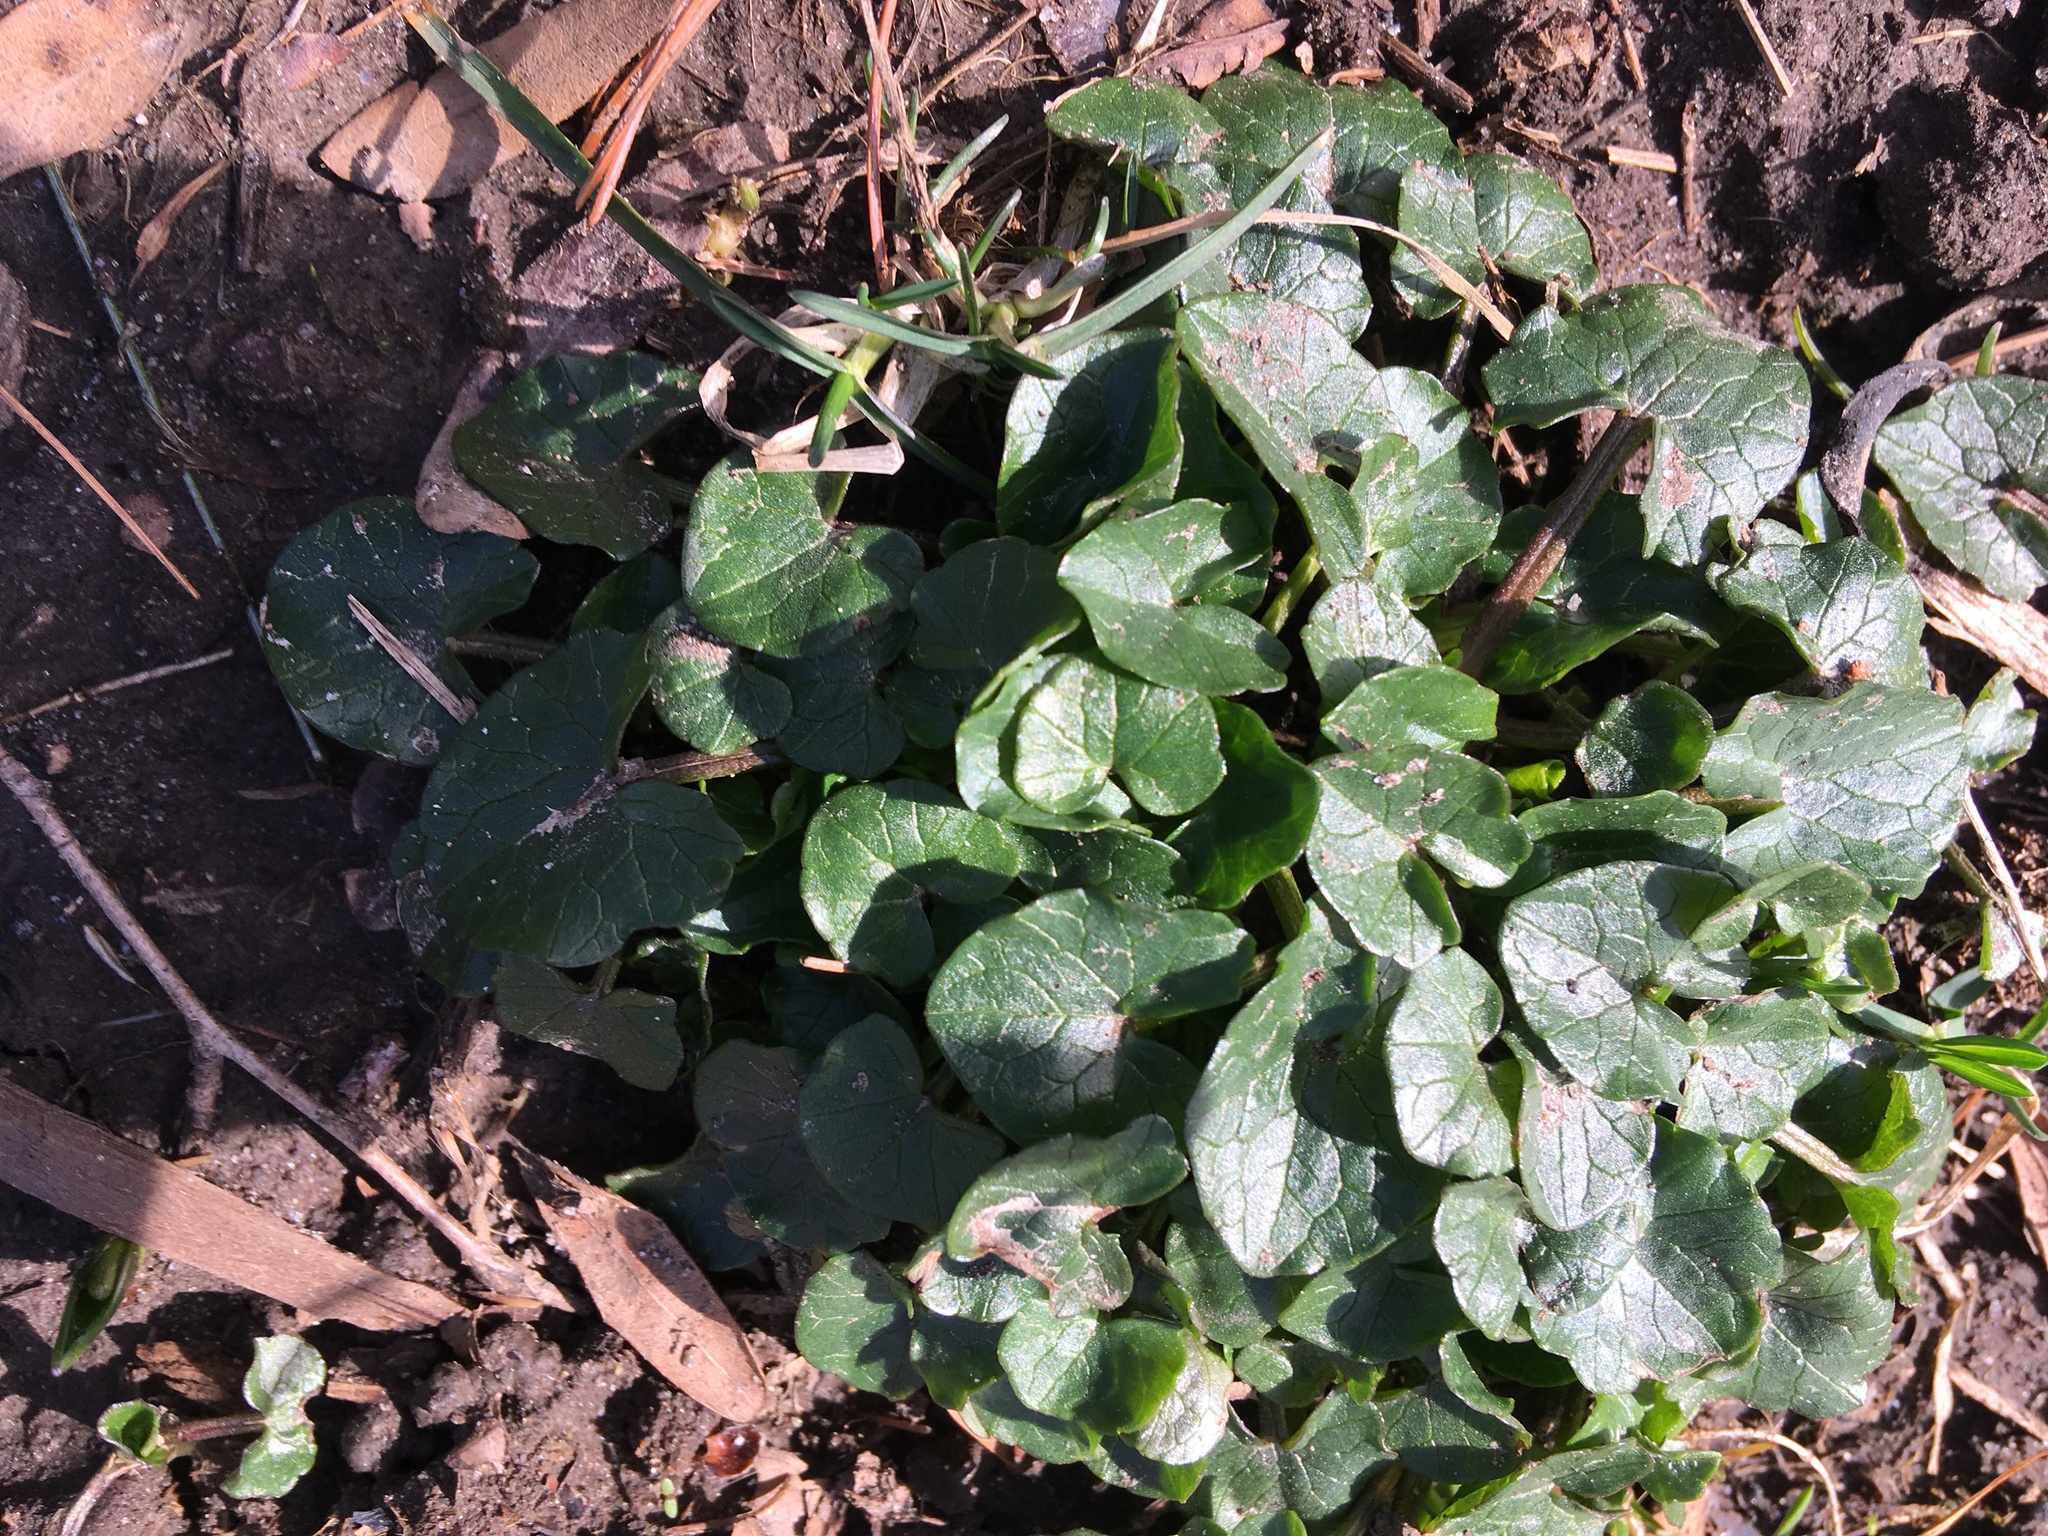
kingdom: Plantae
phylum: Tracheophyta
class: Magnoliopsida
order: Ranunculales
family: Ranunculaceae
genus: Ficaria
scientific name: Ficaria verna
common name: Lesser celandine
